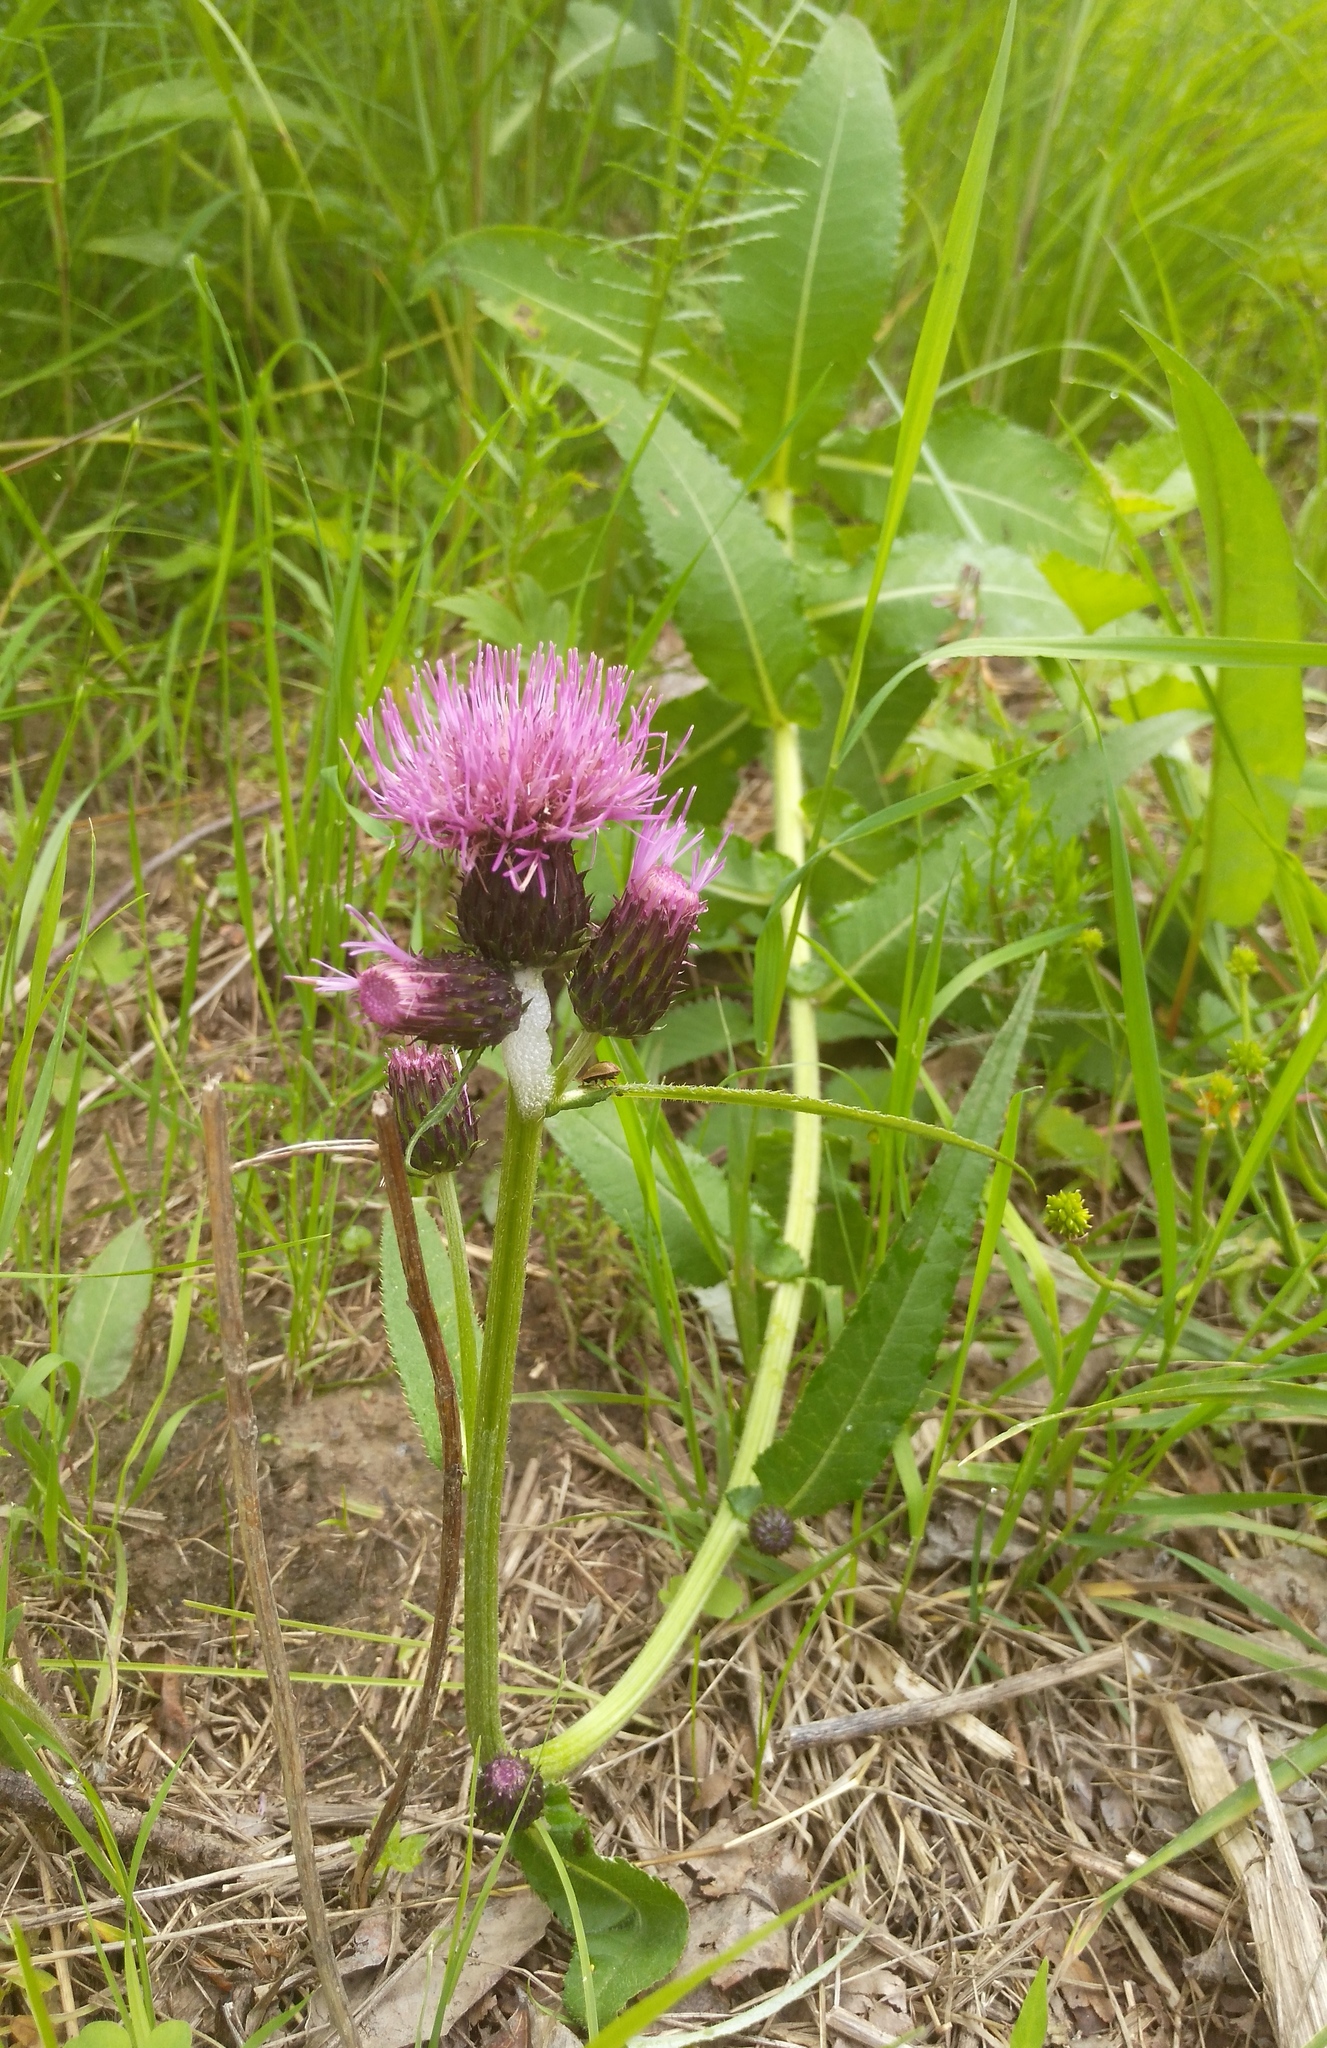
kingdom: Plantae
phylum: Tracheophyta
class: Magnoliopsida
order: Asterales
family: Asteraceae
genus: Cirsium
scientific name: Cirsium helenioides
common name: Melancholy thistle
